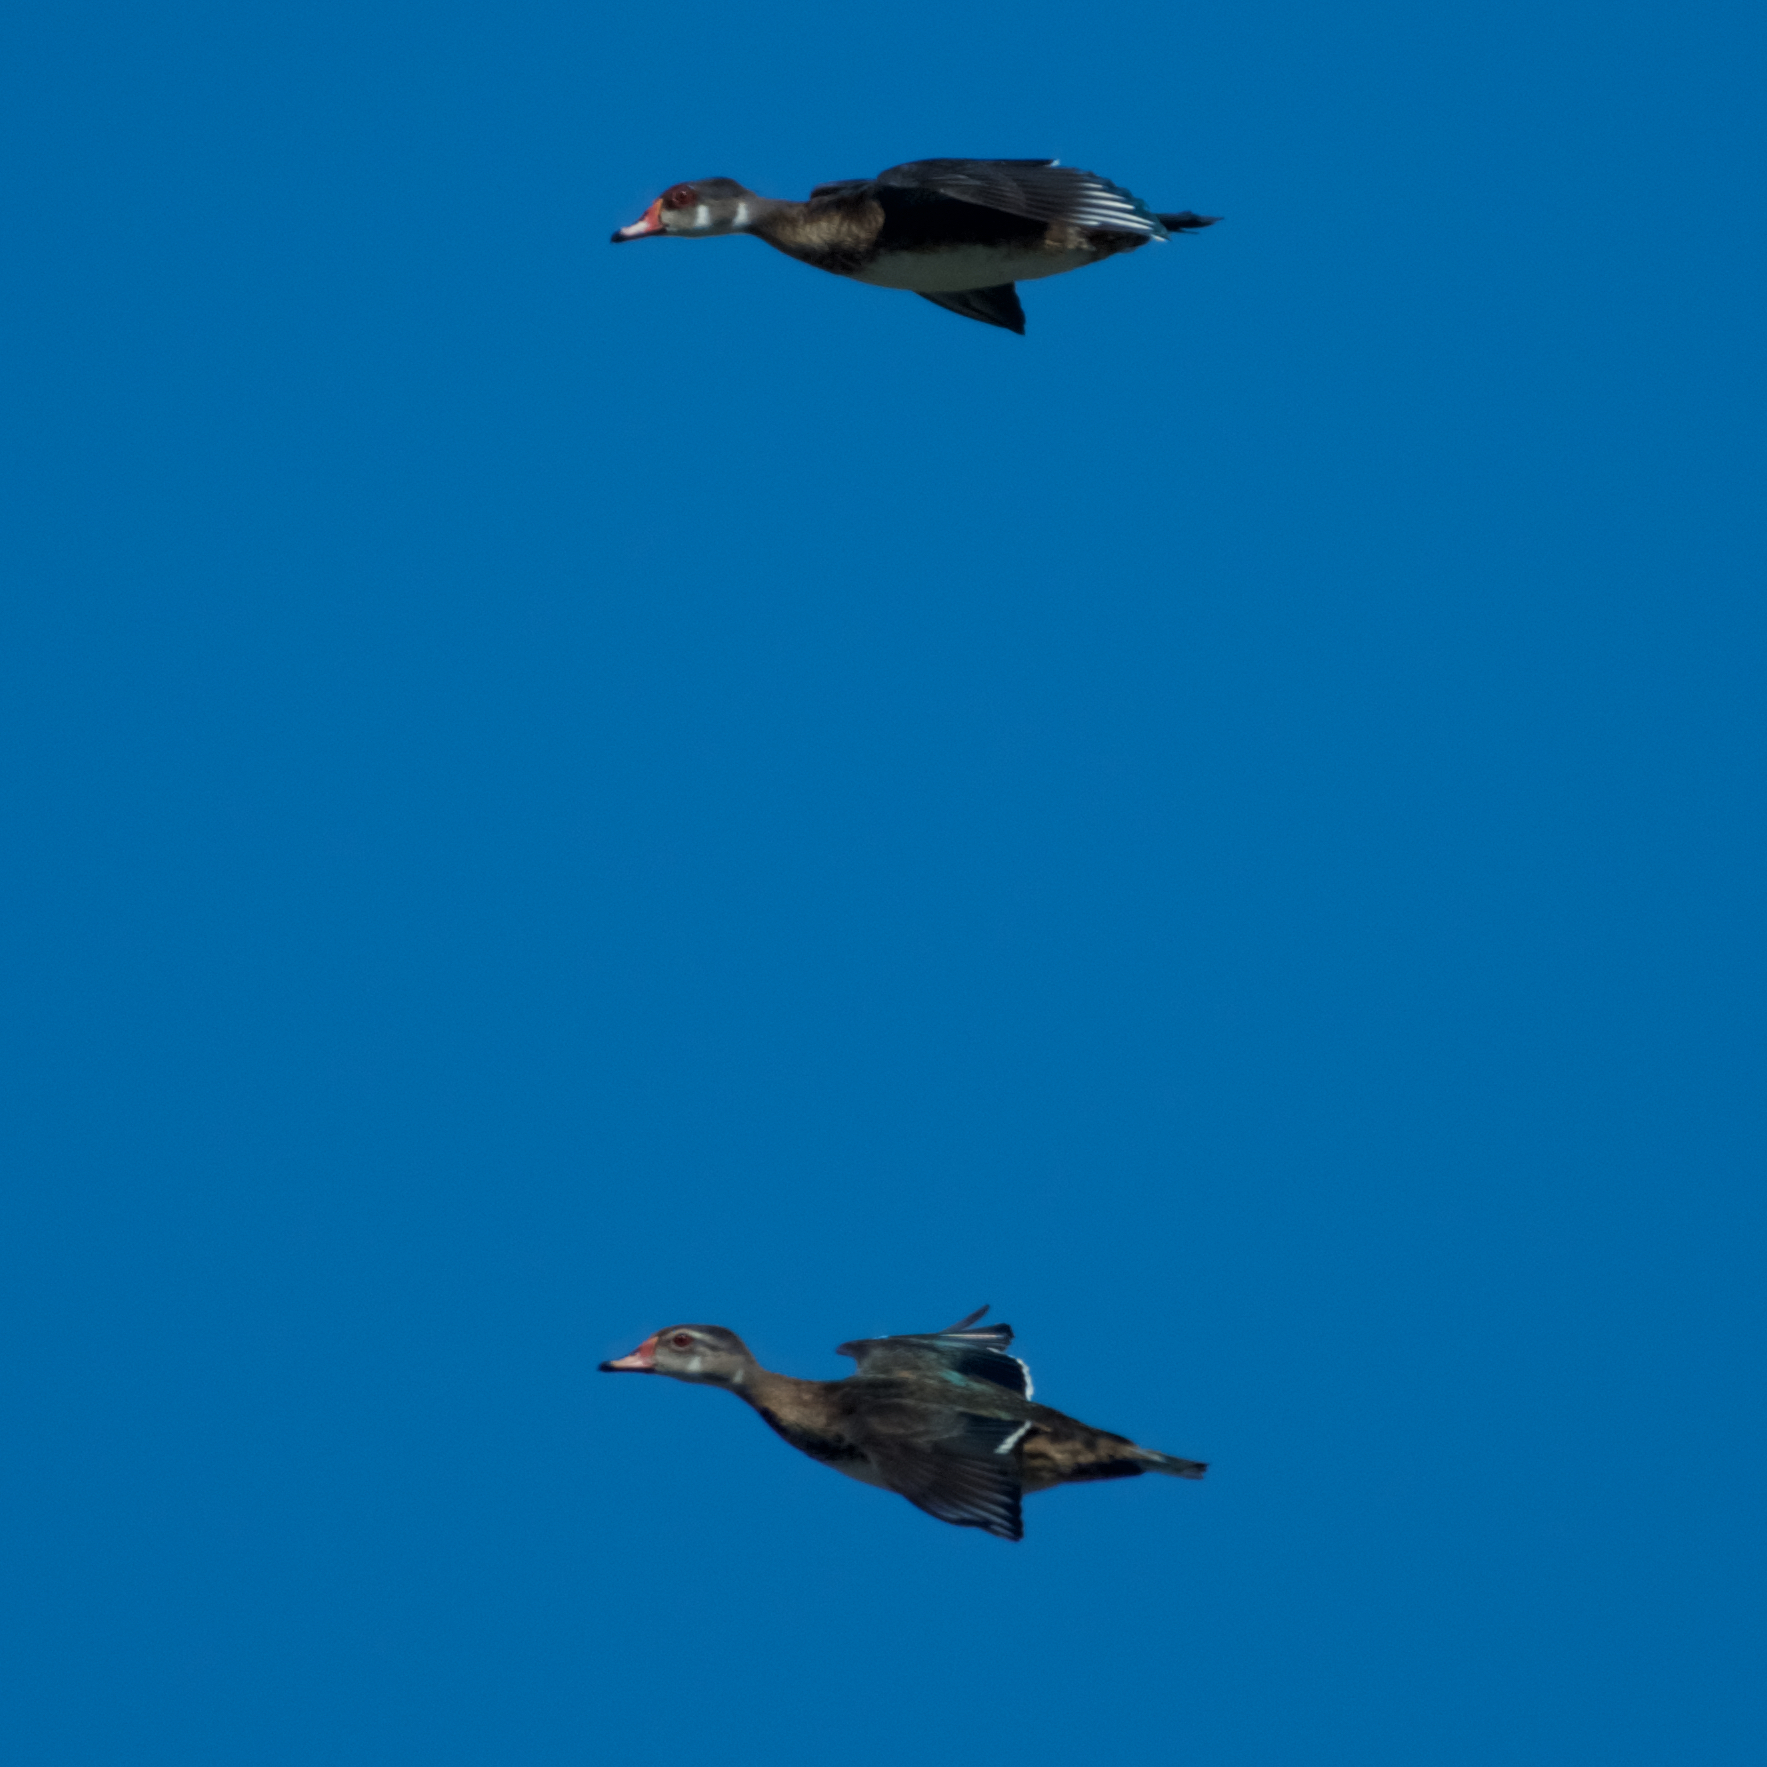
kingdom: Animalia
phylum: Chordata
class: Aves
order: Anseriformes
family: Anatidae
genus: Aix
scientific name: Aix sponsa
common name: Wood duck
